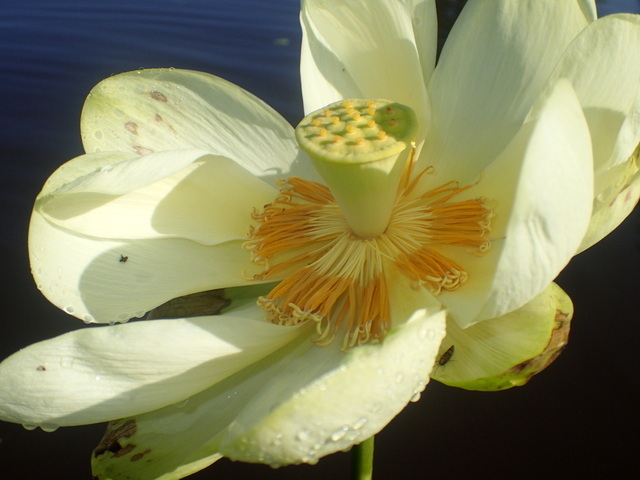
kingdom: Plantae
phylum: Tracheophyta
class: Magnoliopsida
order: Proteales
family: Nelumbonaceae
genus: Nelumbo
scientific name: Nelumbo lutea
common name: American lotus
